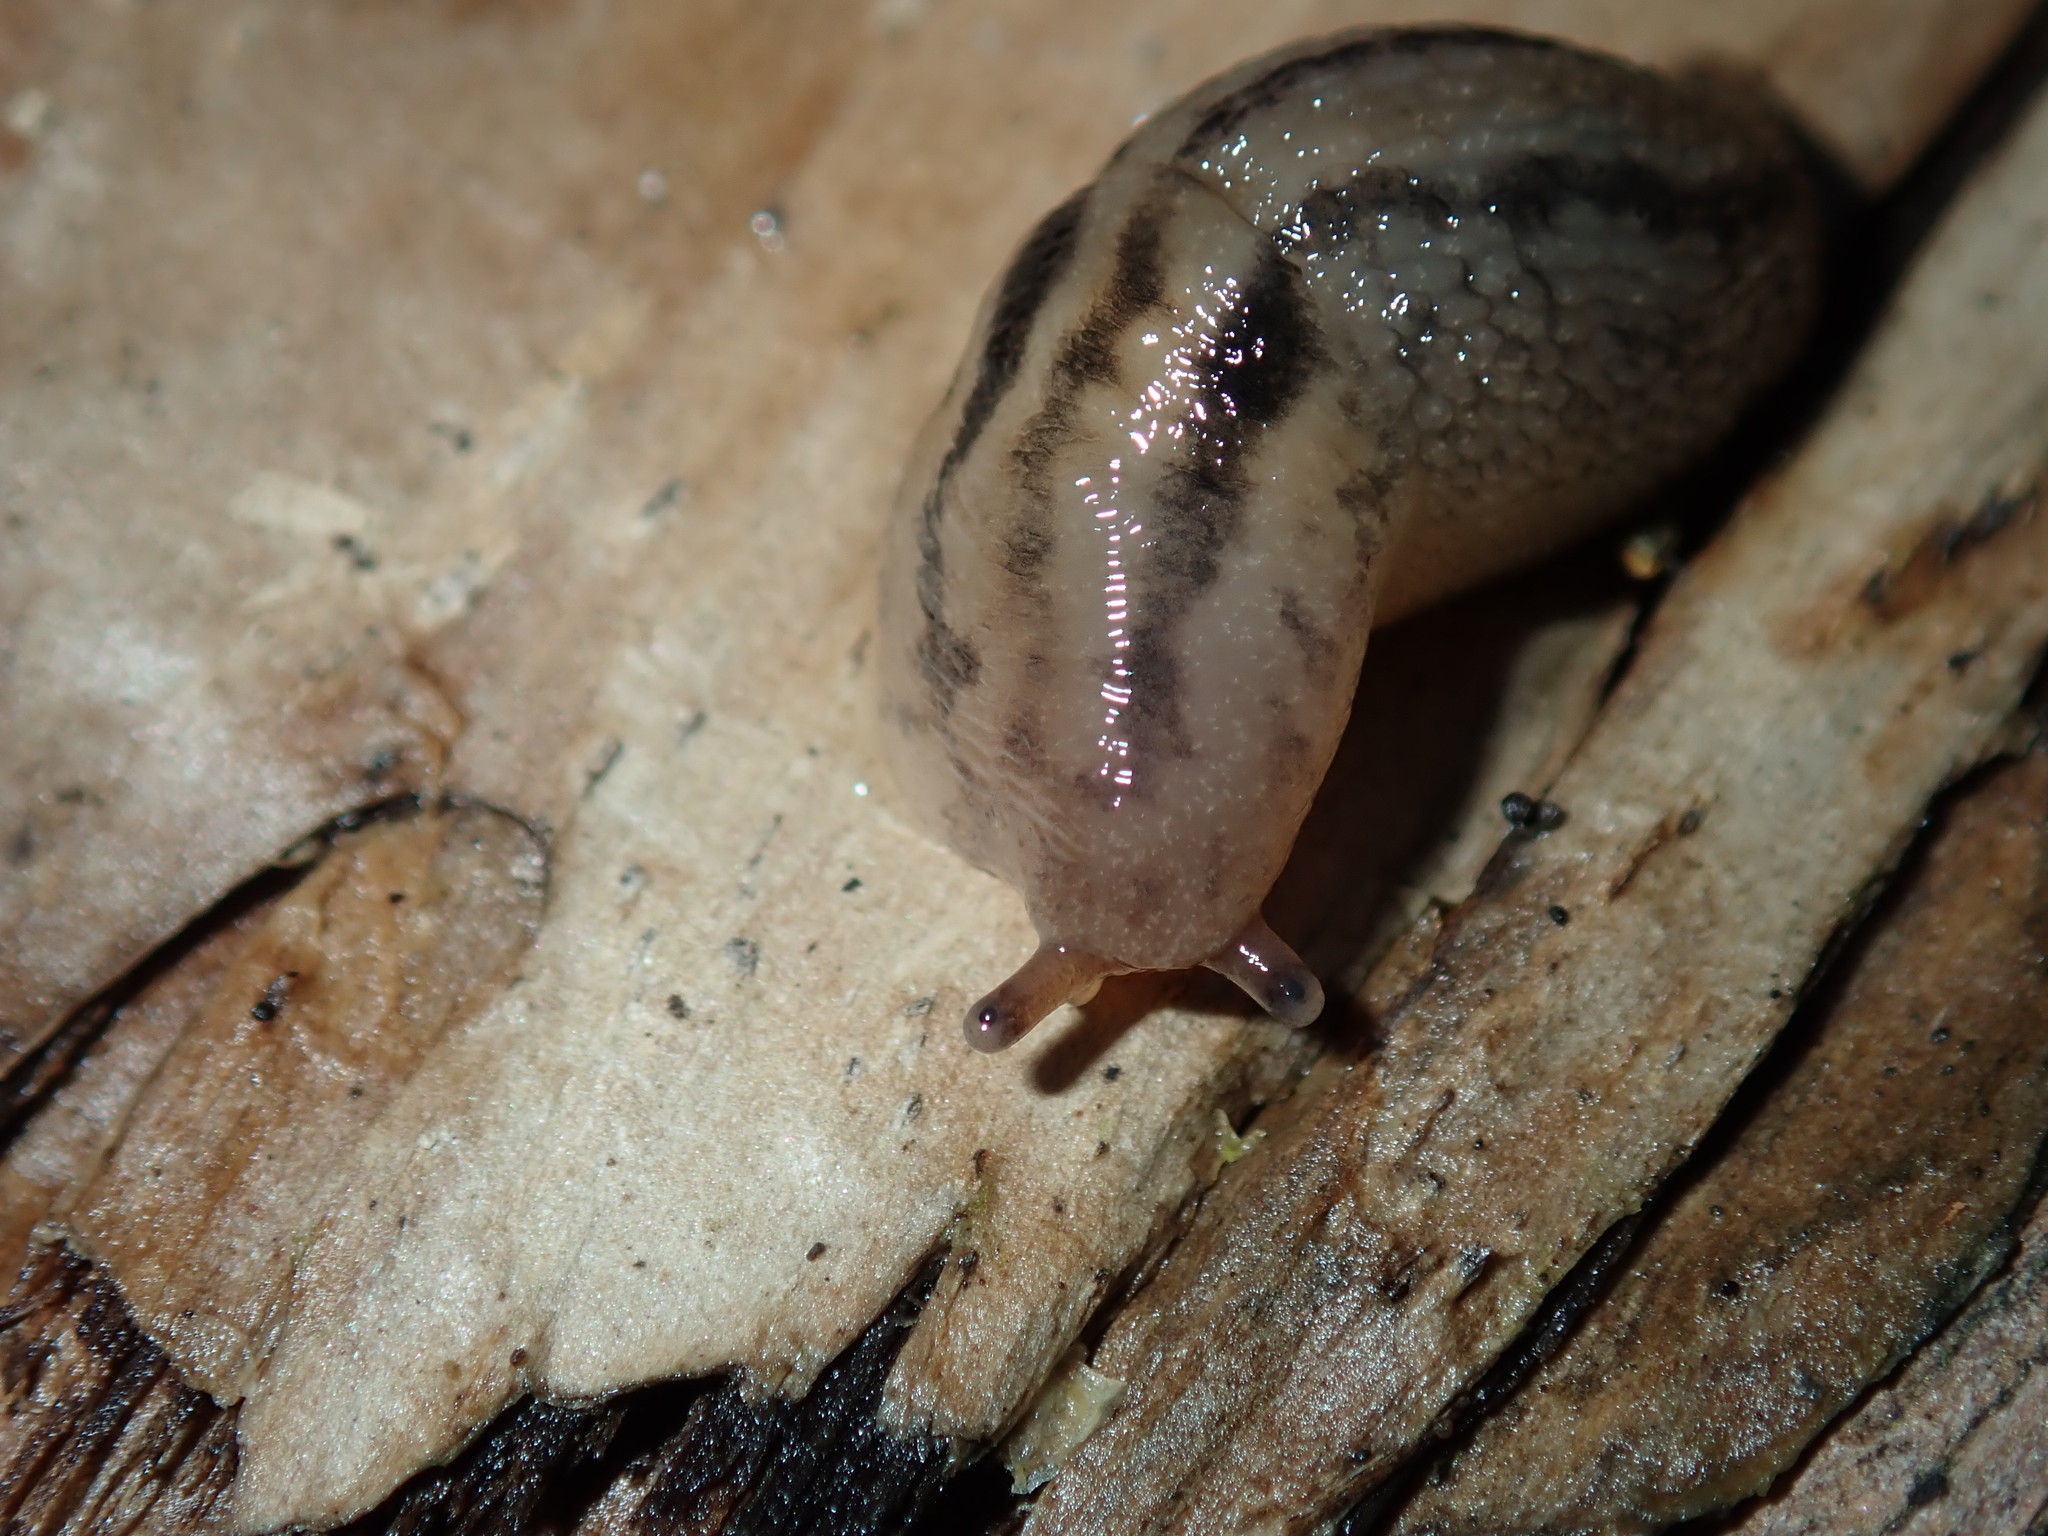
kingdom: Animalia
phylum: Mollusca
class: Gastropoda
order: Stylommatophora
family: Limacidae
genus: Ambigolimax
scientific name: Ambigolimax
